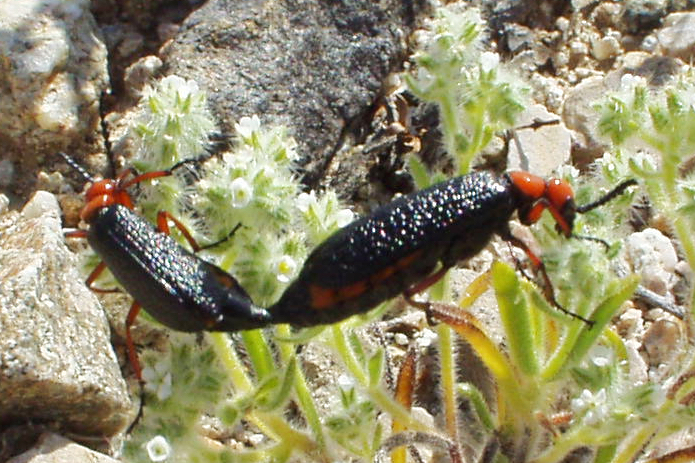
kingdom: Animalia
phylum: Arthropoda
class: Insecta
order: Coleoptera
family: Meloidae
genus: Lytta
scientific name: Lytta magister
